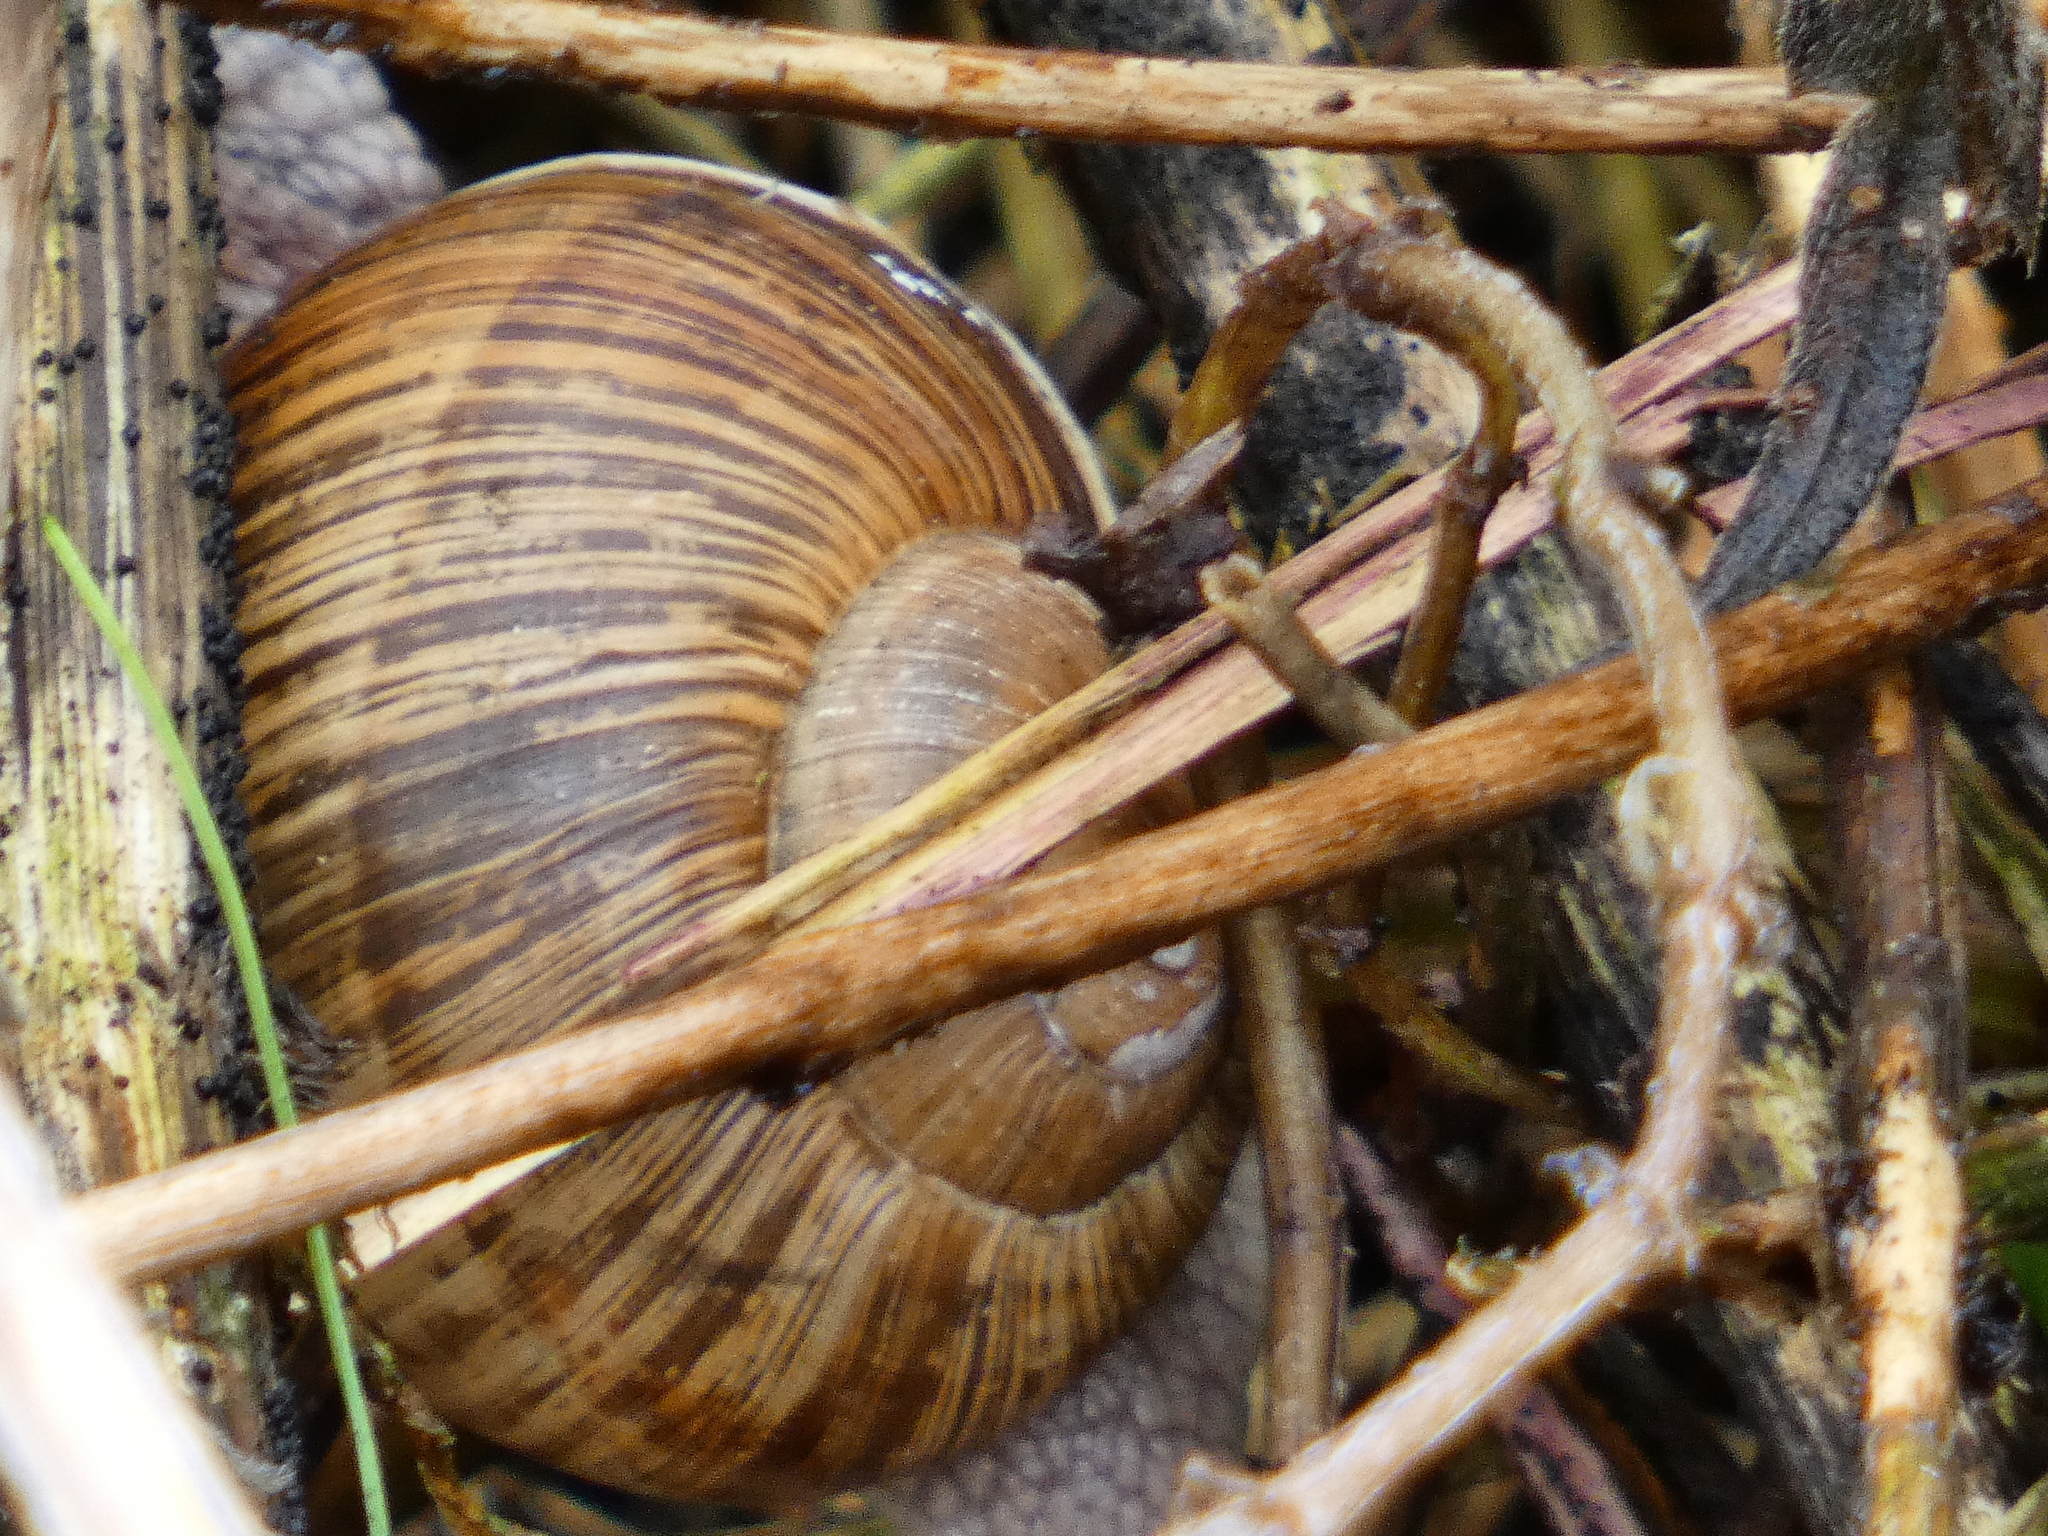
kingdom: Animalia
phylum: Mollusca
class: Gastropoda
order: Stylommatophora
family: Helicidae
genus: Helix
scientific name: Helix pomatia
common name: Roman snail
